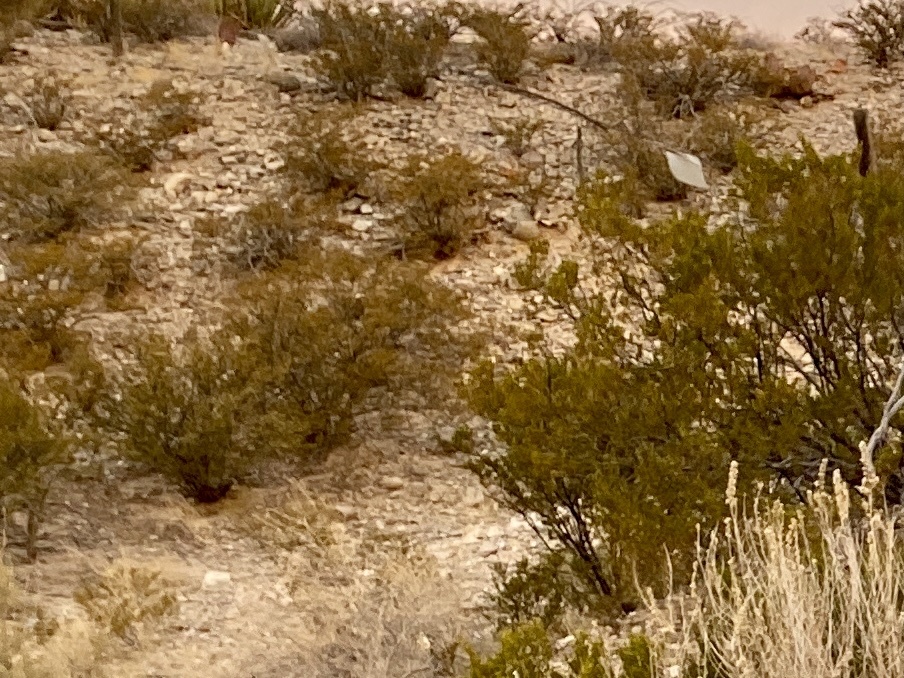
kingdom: Plantae
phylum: Tracheophyta
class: Magnoliopsida
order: Zygophyllales
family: Zygophyllaceae
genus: Larrea
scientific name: Larrea tridentata
